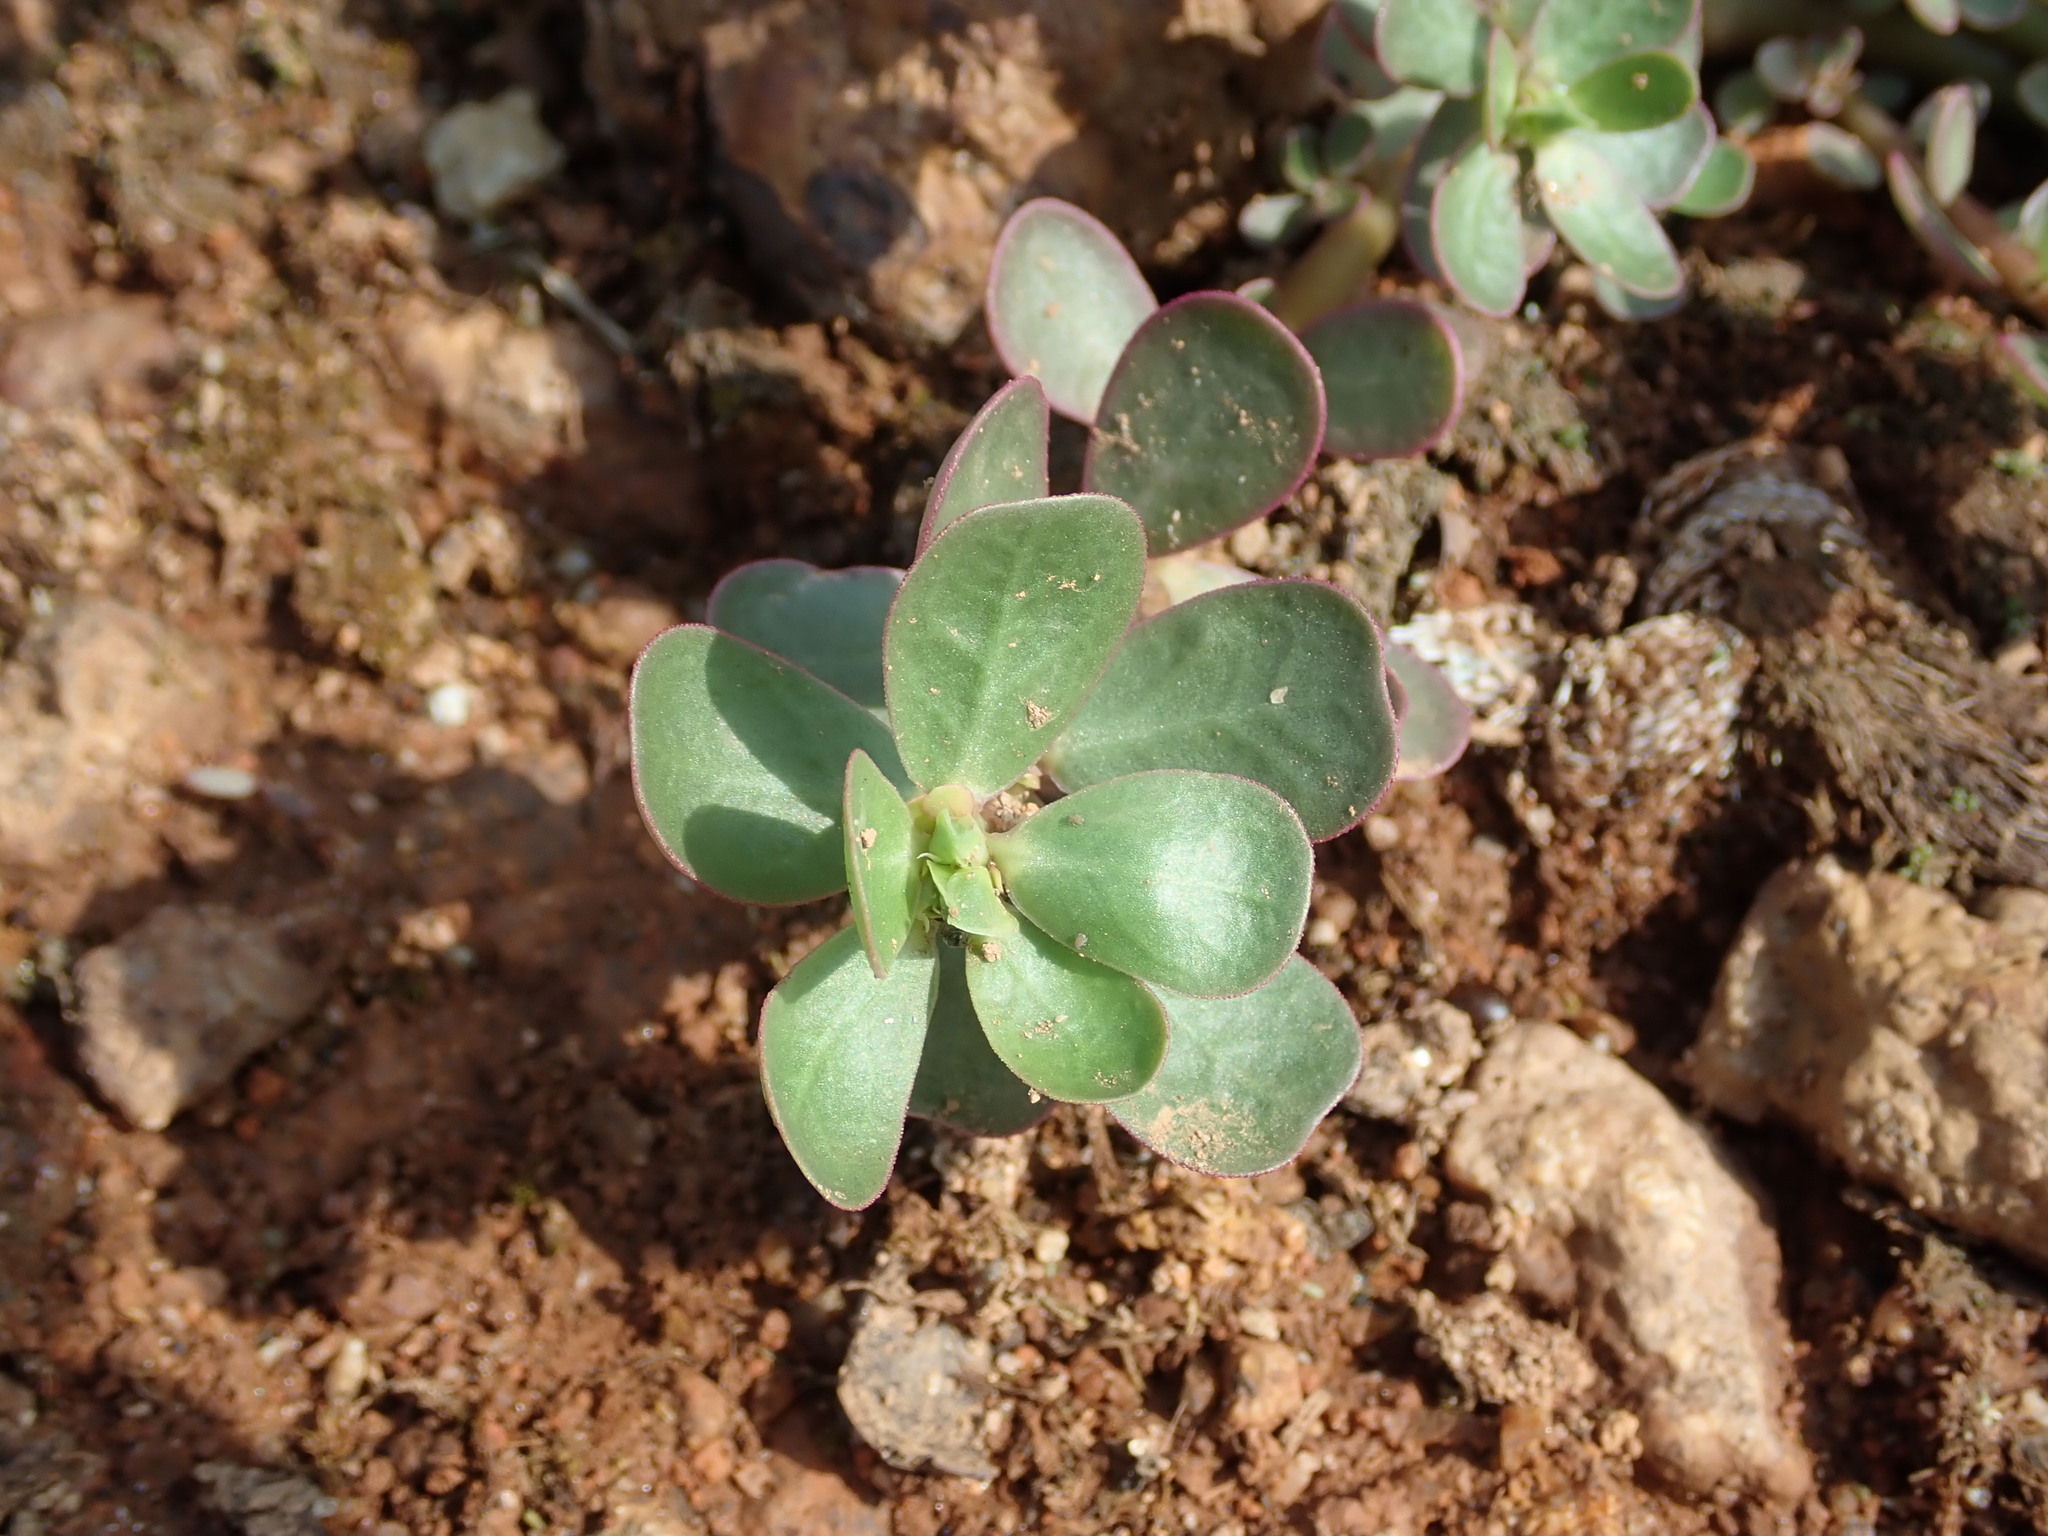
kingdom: Plantae
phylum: Tracheophyta
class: Magnoliopsida
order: Caryophyllales
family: Portulacaceae
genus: Portulaca
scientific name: Portulaca oleracea
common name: Common purslane
